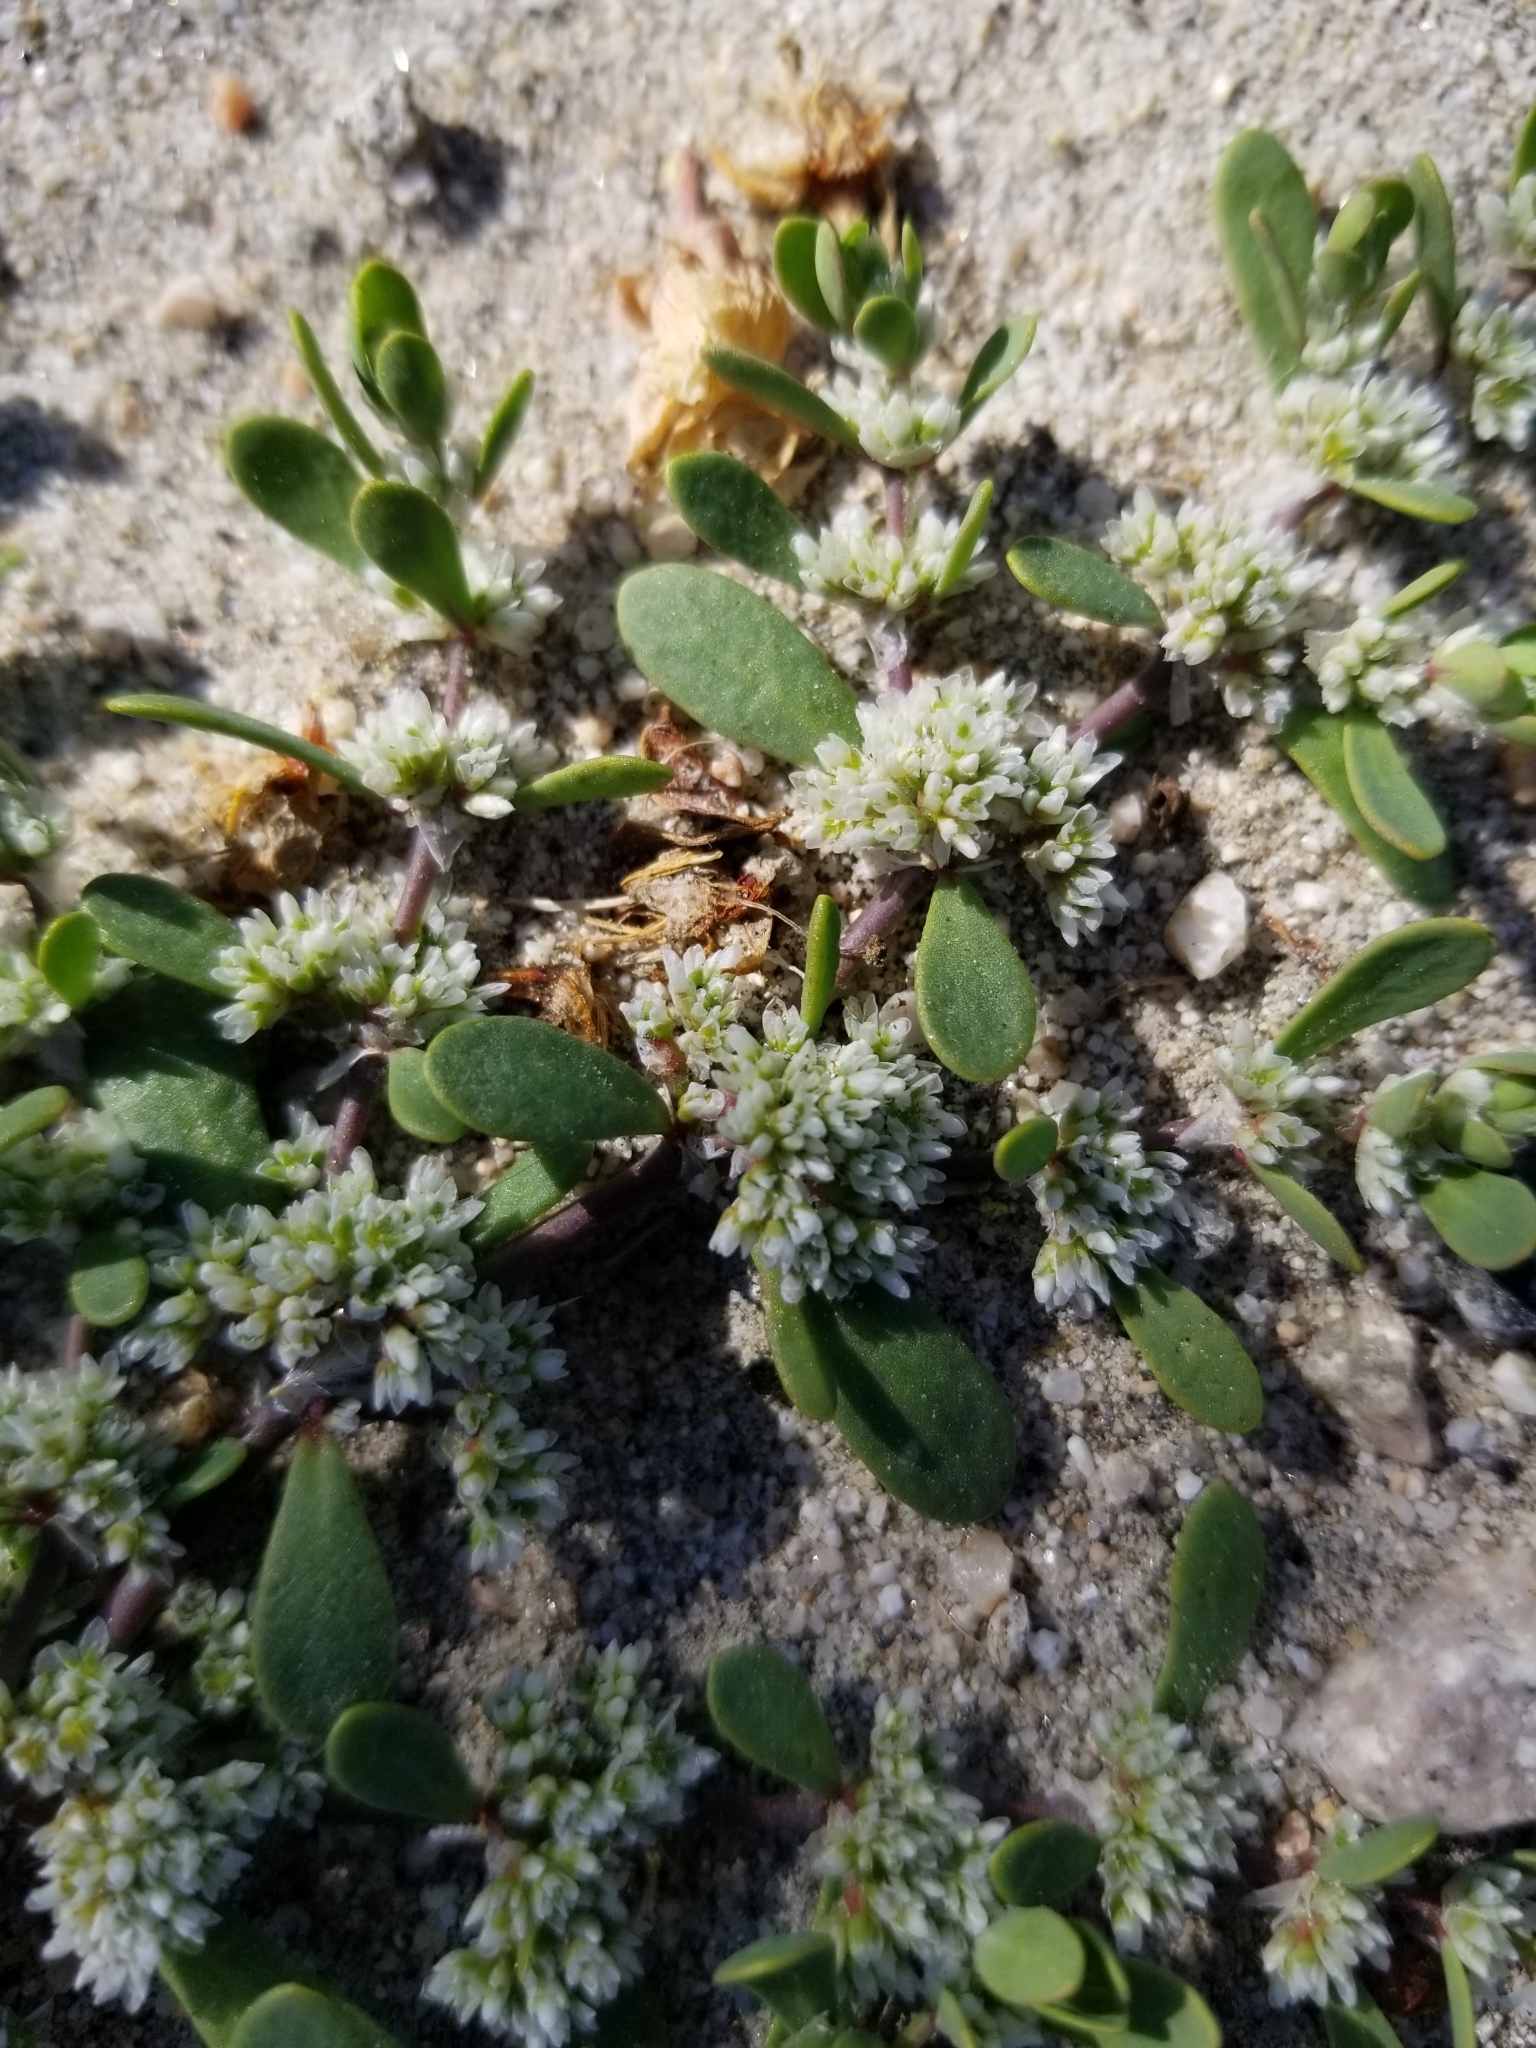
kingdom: Plantae
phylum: Tracheophyta
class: Magnoliopsida
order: Caryophyllales
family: Caryophyllaceae
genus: Achyronychia
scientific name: Achyronychia cooperi
